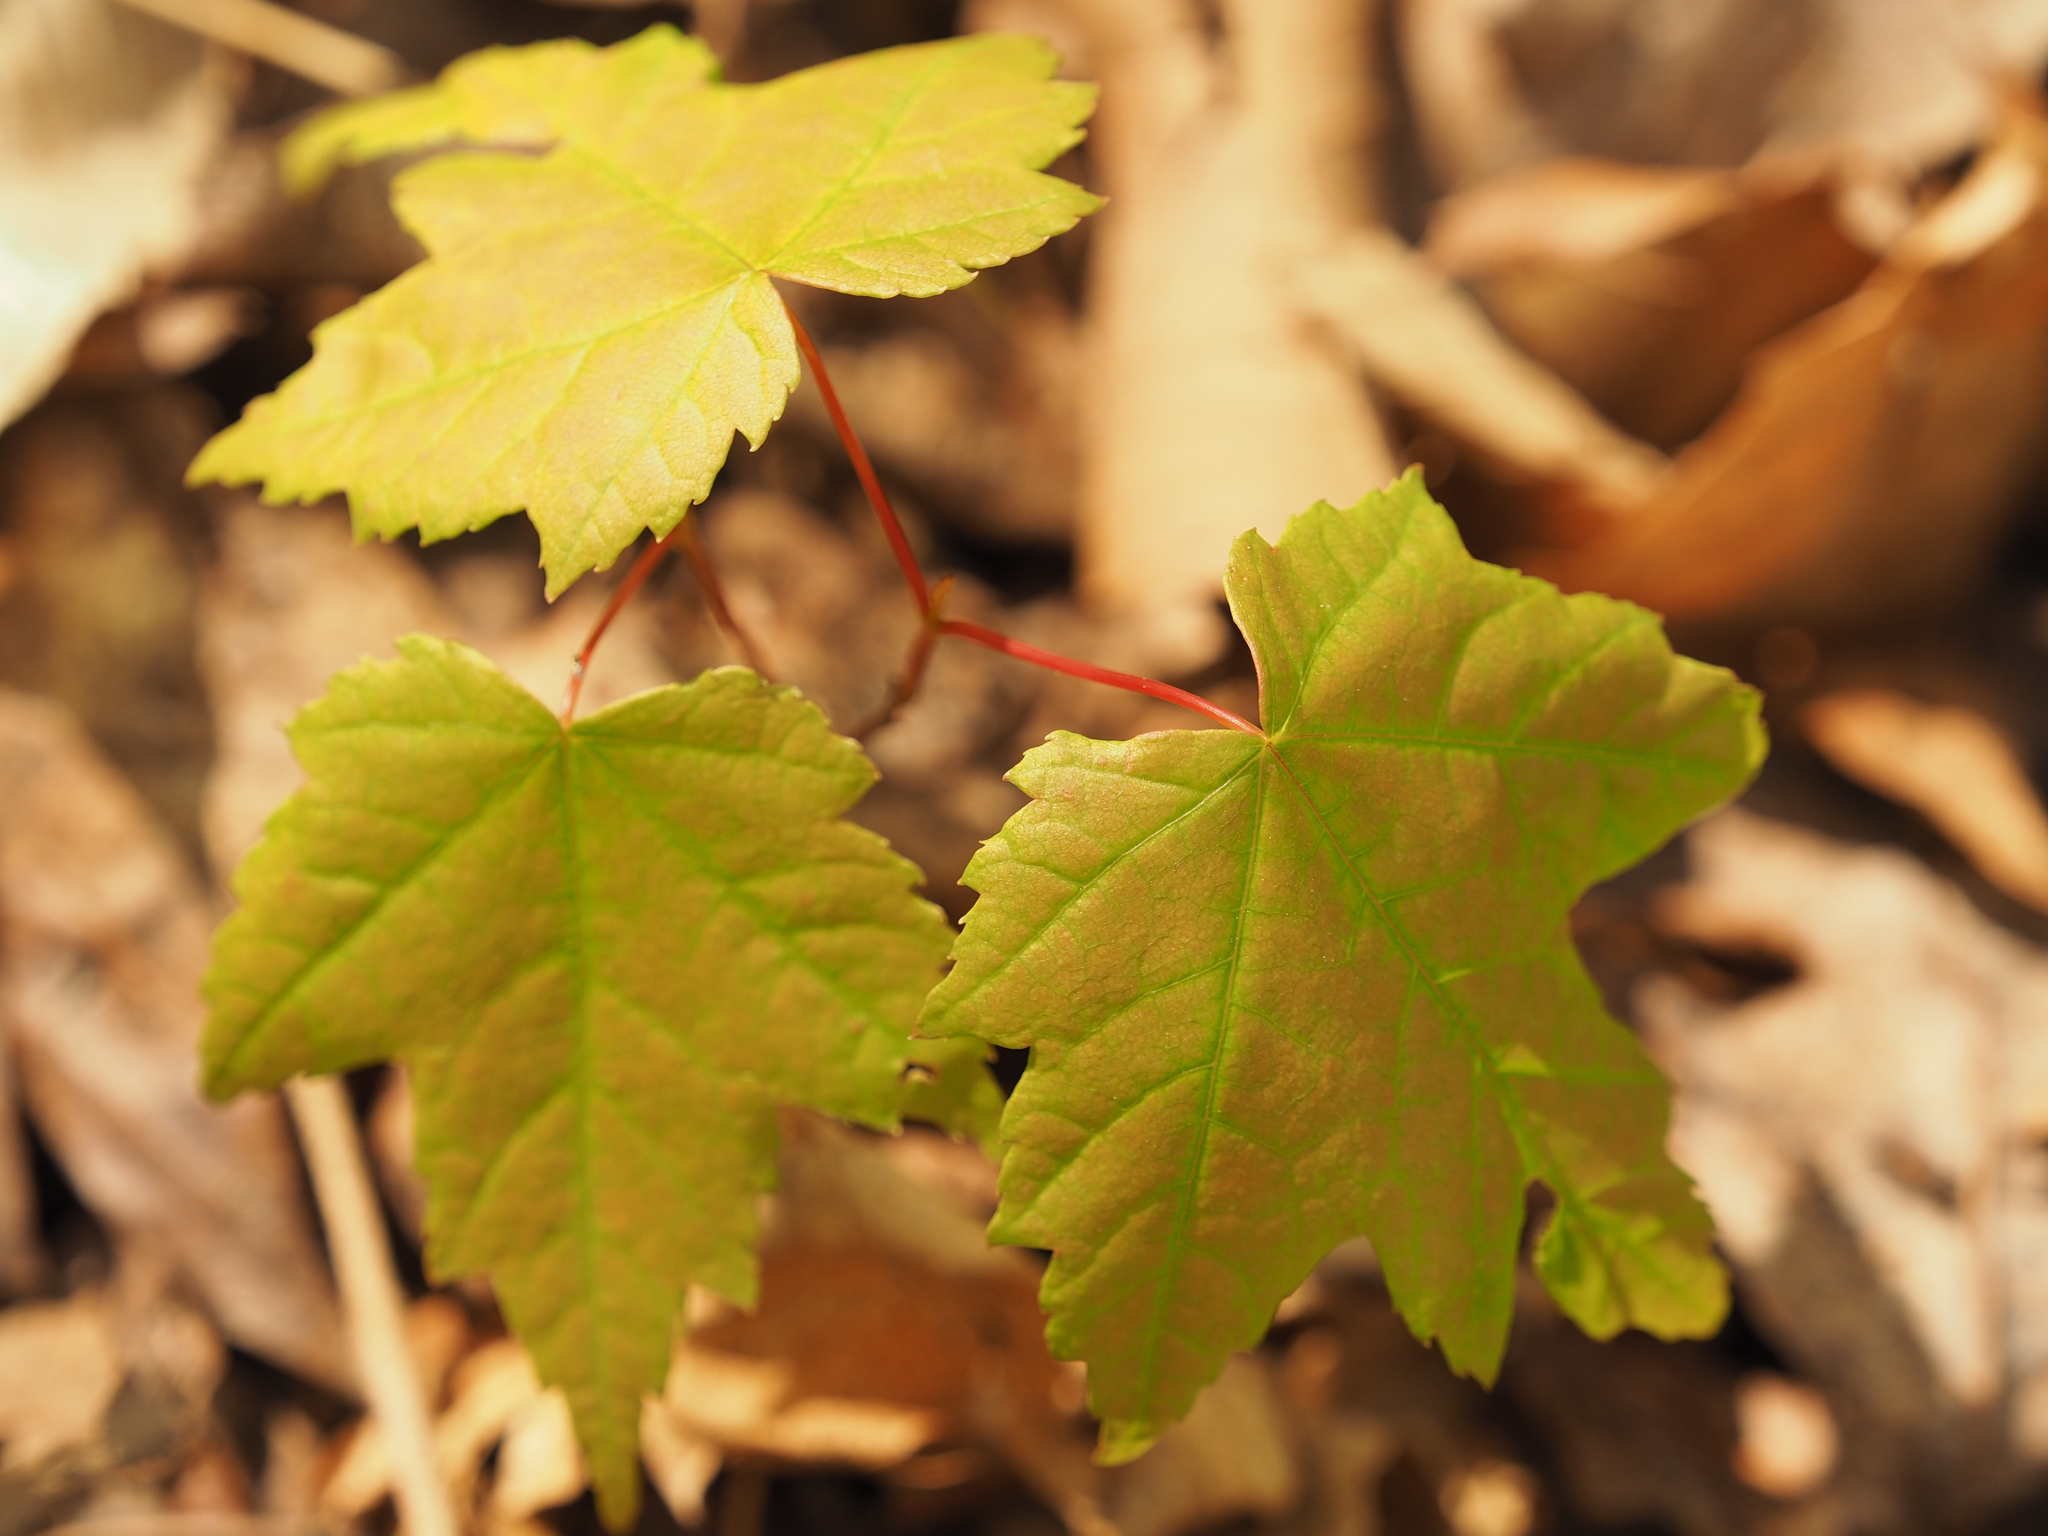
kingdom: Plantae
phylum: Tracheophyta
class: Magnoliopsida
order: Sapindales
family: Sapindaceae
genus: Acer
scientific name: Acer rubrum
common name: Red maple
